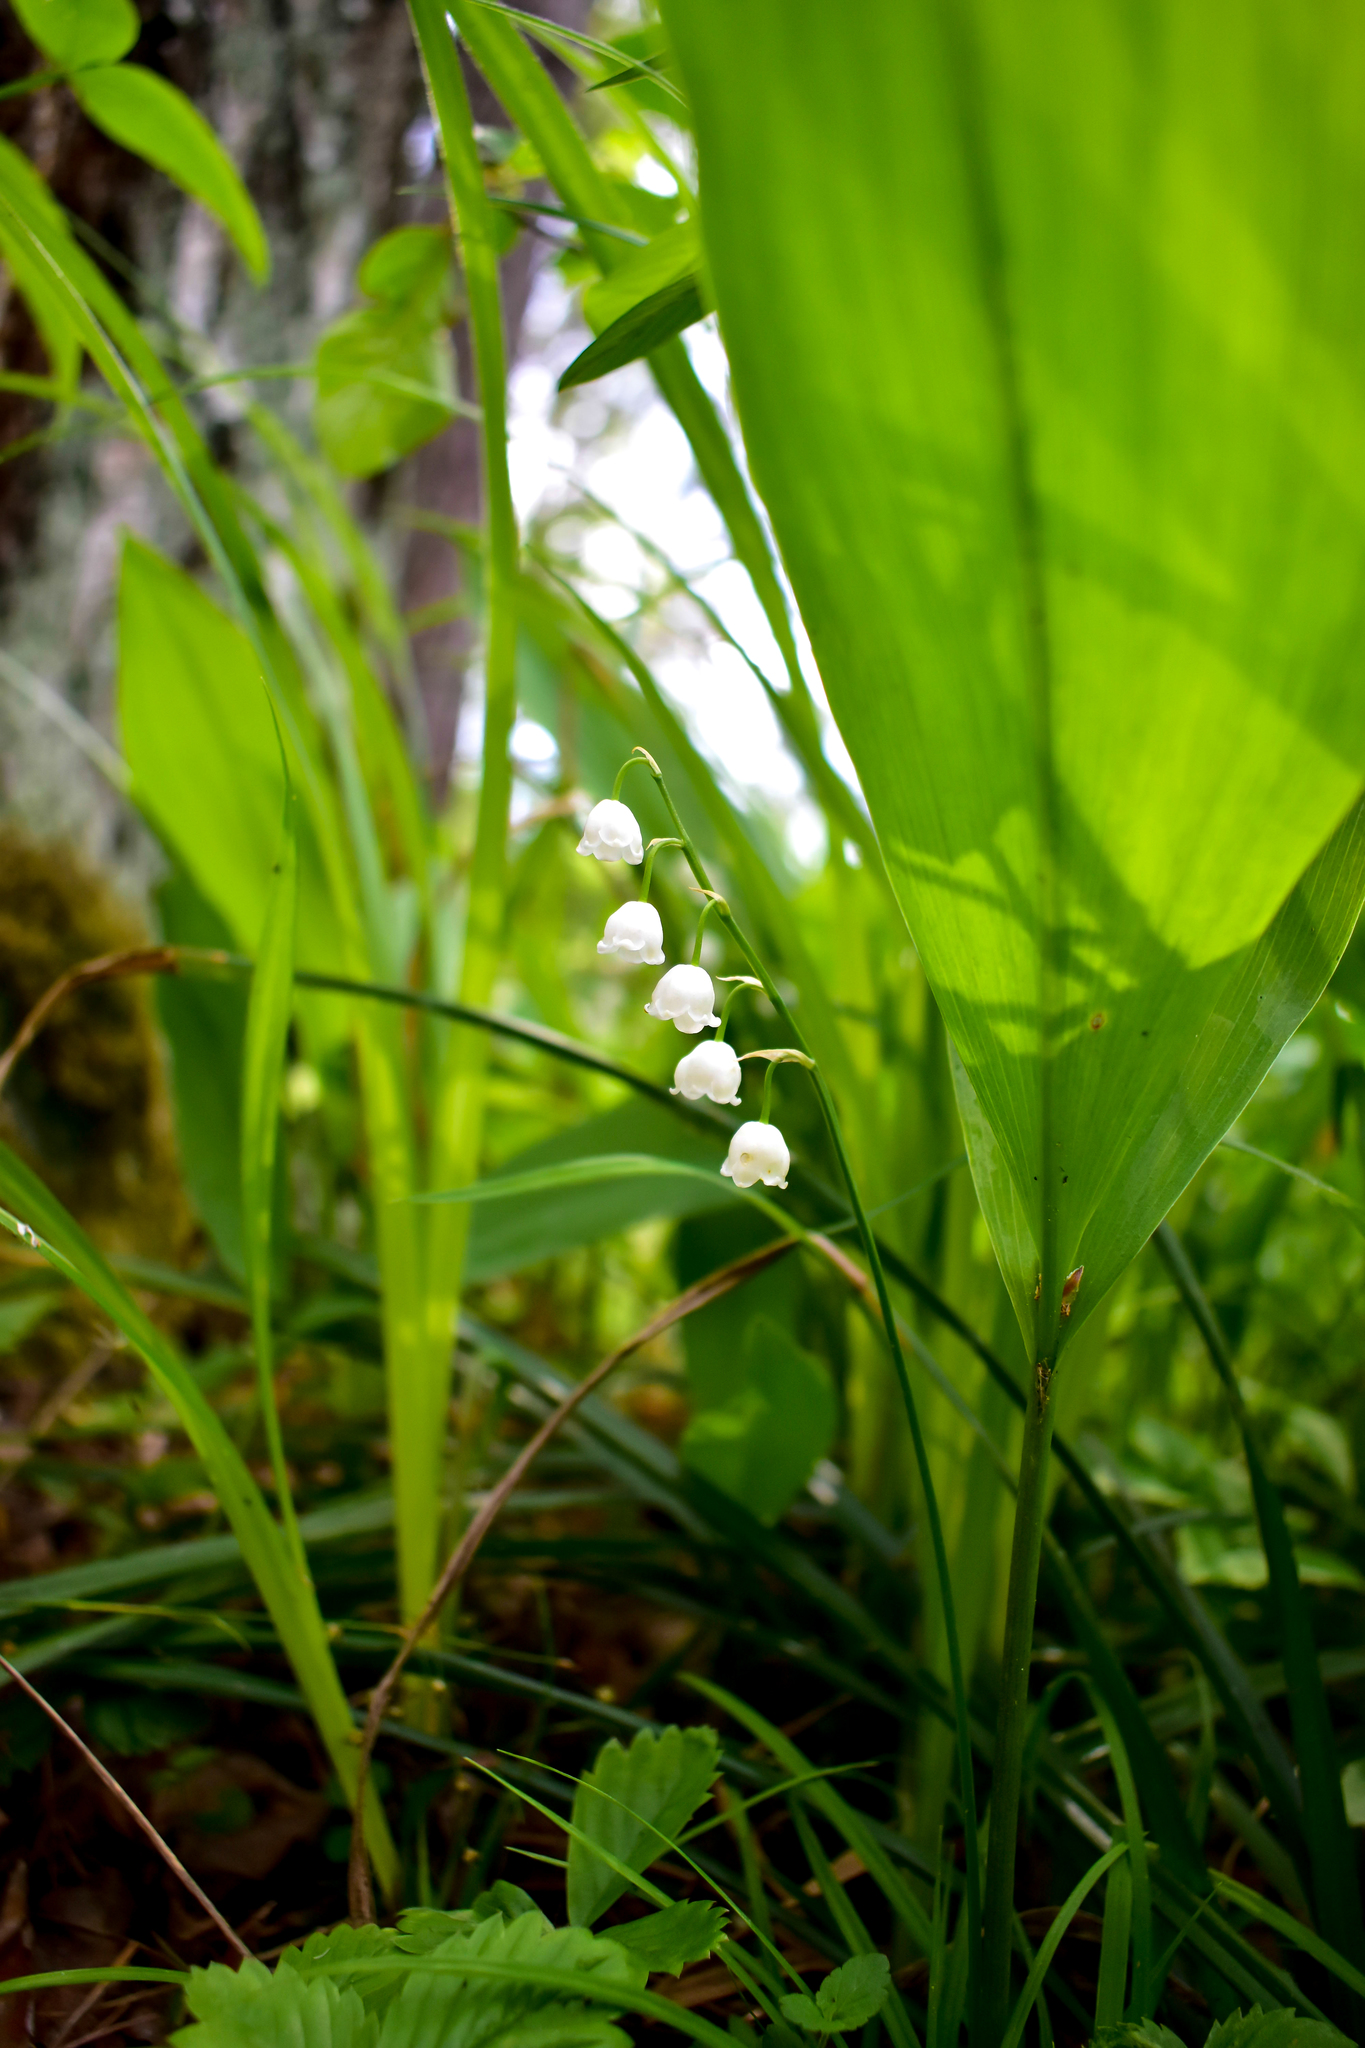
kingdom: Plantae
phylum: Tracheophyta
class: Liliopsida
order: Asparagales
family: Asparagaceae
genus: Convallaria
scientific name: Convallaria majalis
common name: Lily-of-the-valley
